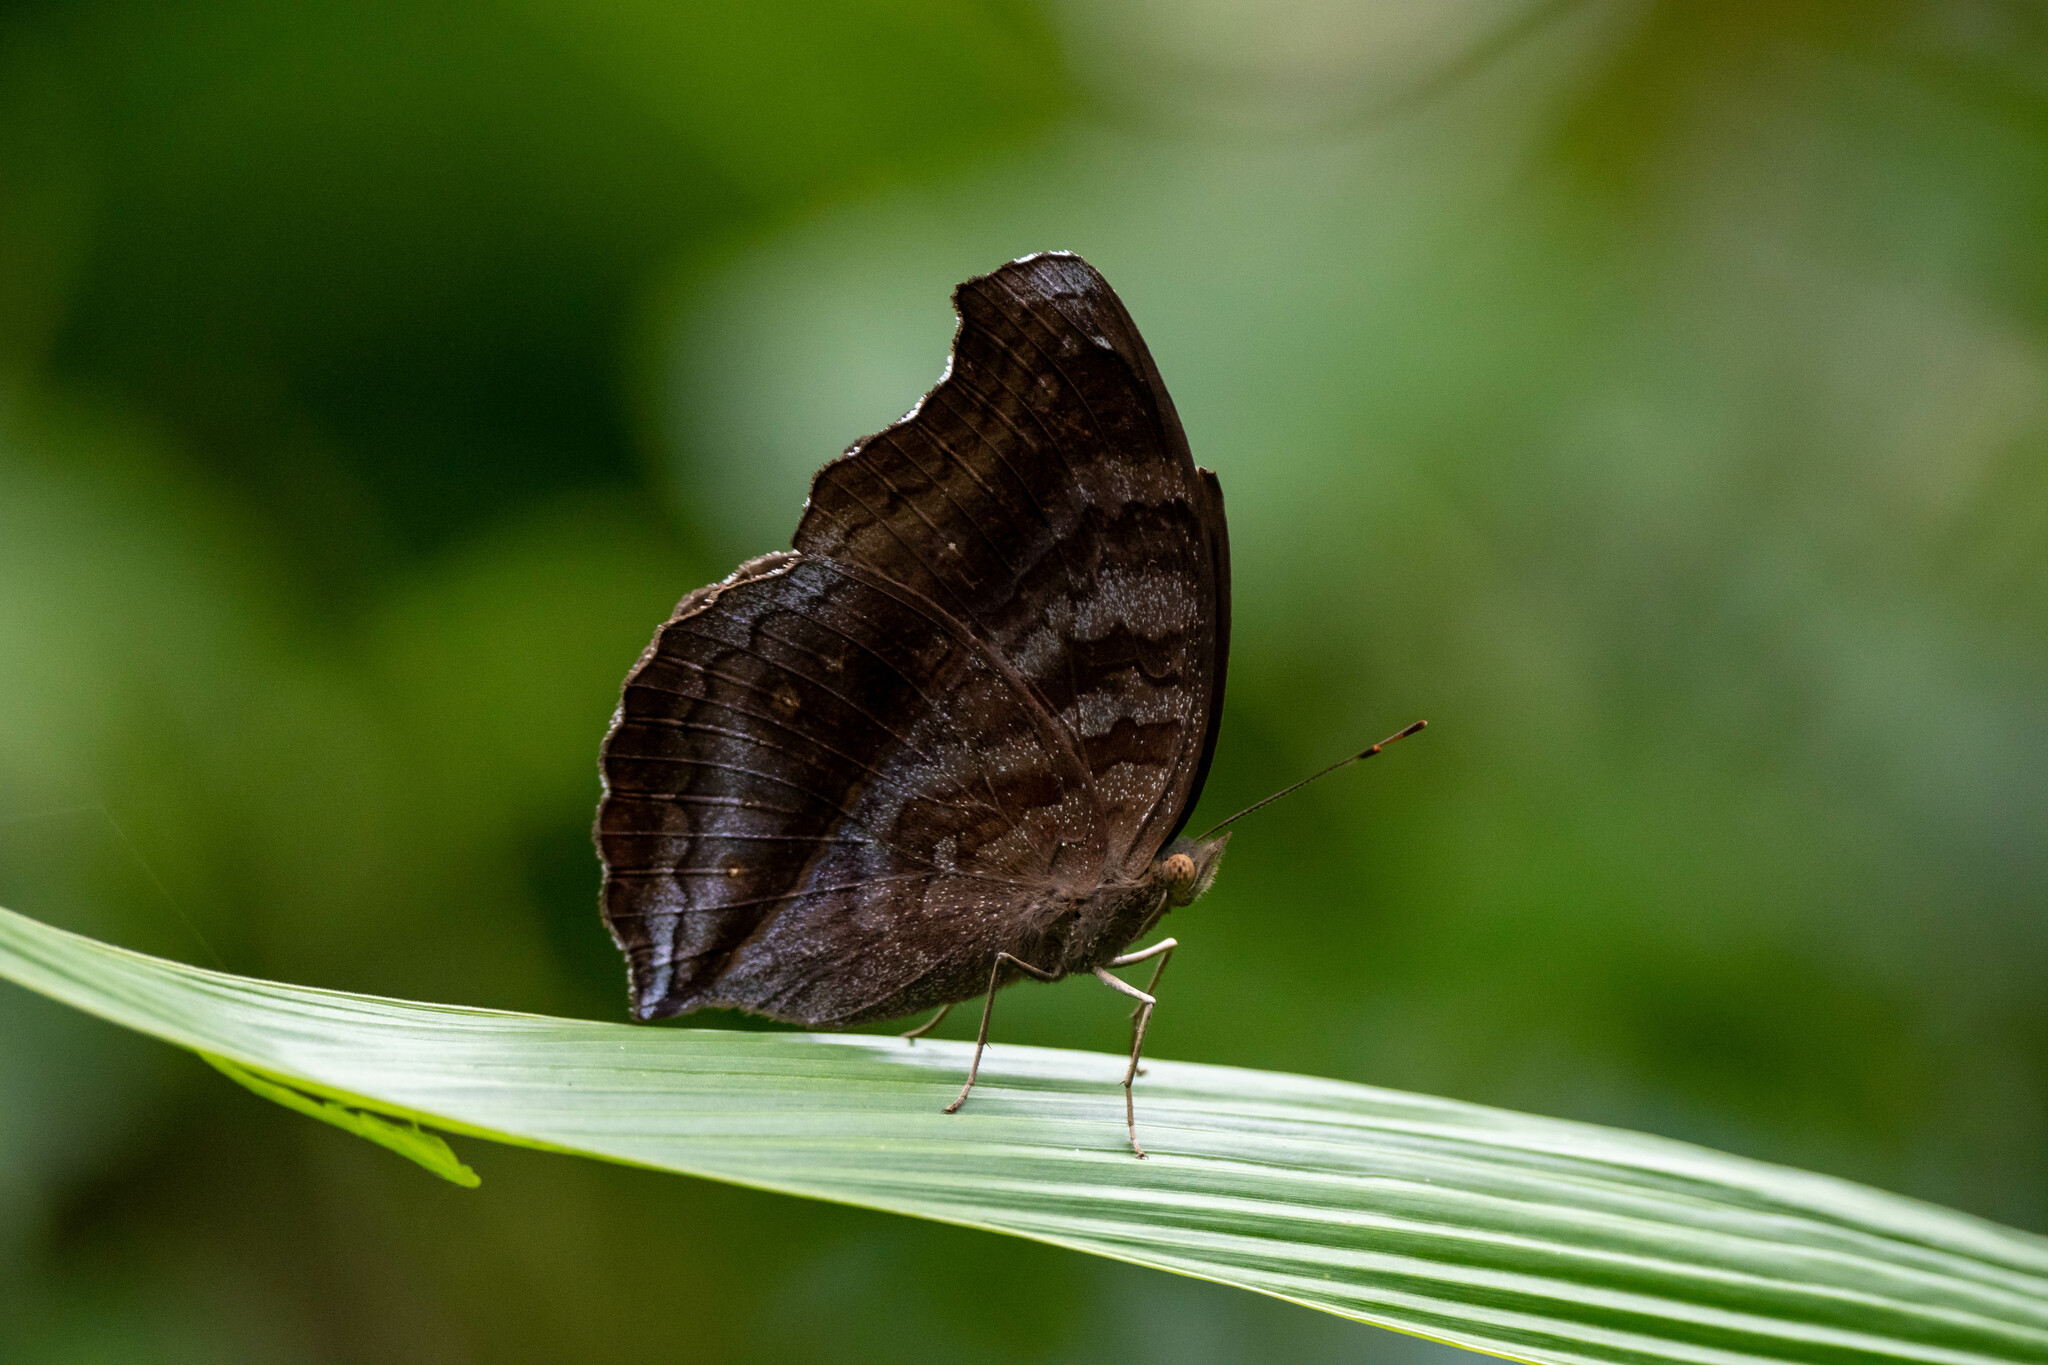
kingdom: Animalia
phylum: Arthropoda
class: Insecta
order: Lepidoptera
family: Nymphalidae
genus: Junonia
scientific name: Junonia iphita
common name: Chocolate pansy
